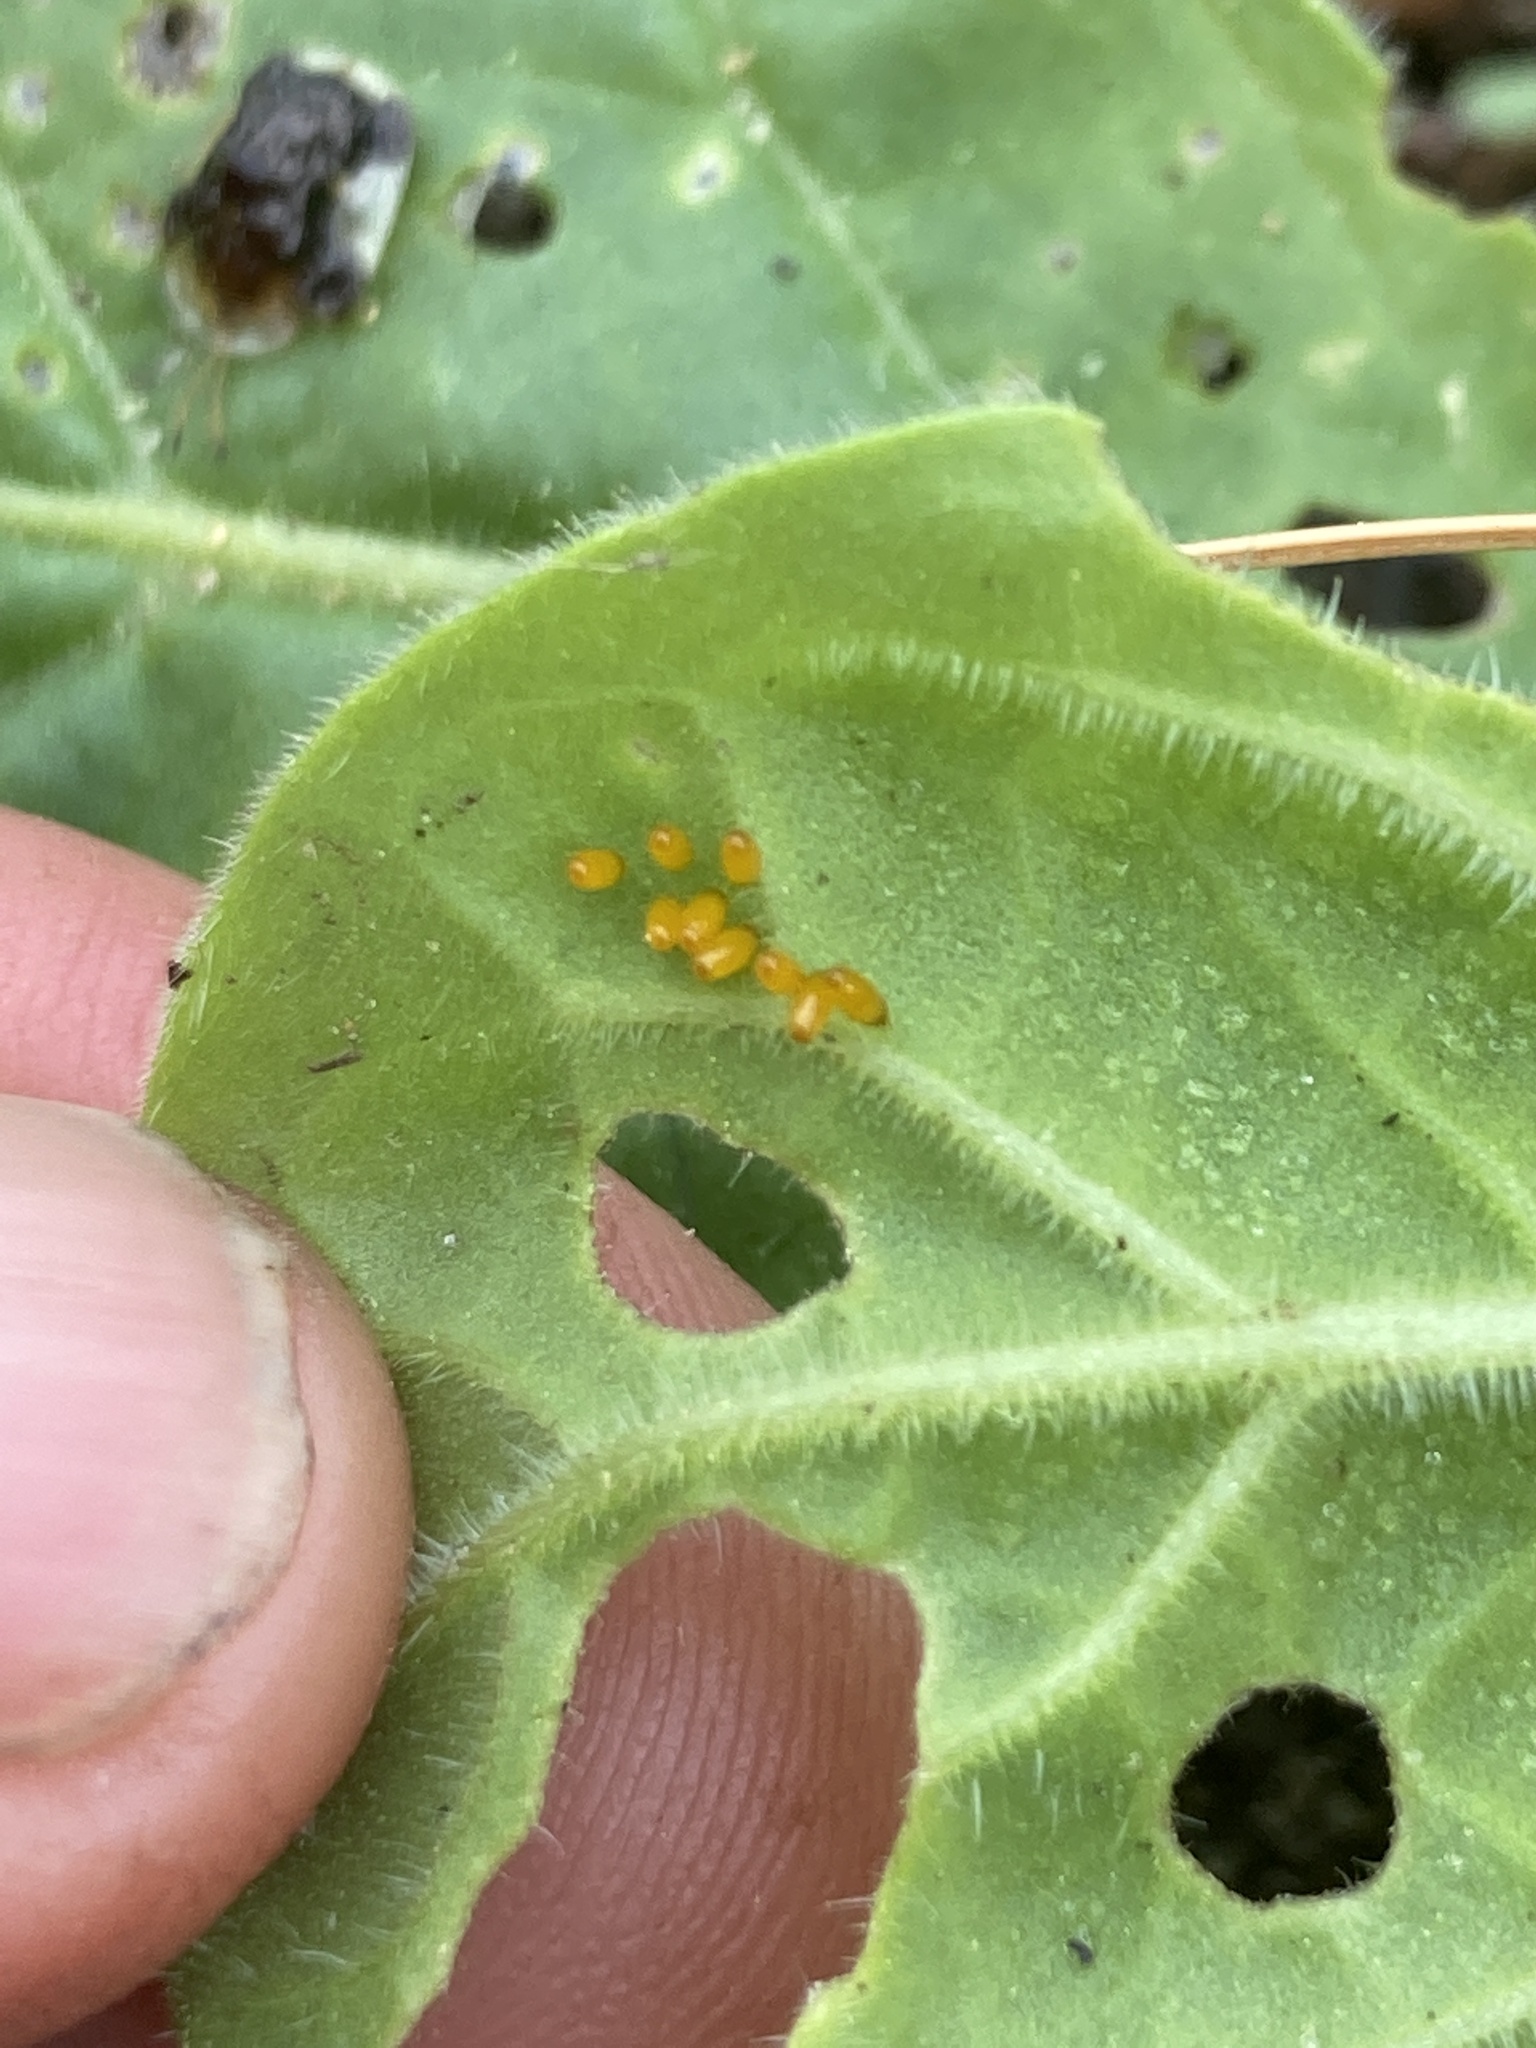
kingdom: Animalia
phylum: Arthropoda
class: Insecta
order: Coleoptera
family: Chrysomelidae
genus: Helocassis
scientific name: Helocassis clavata
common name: Clavate tortoise beetle
